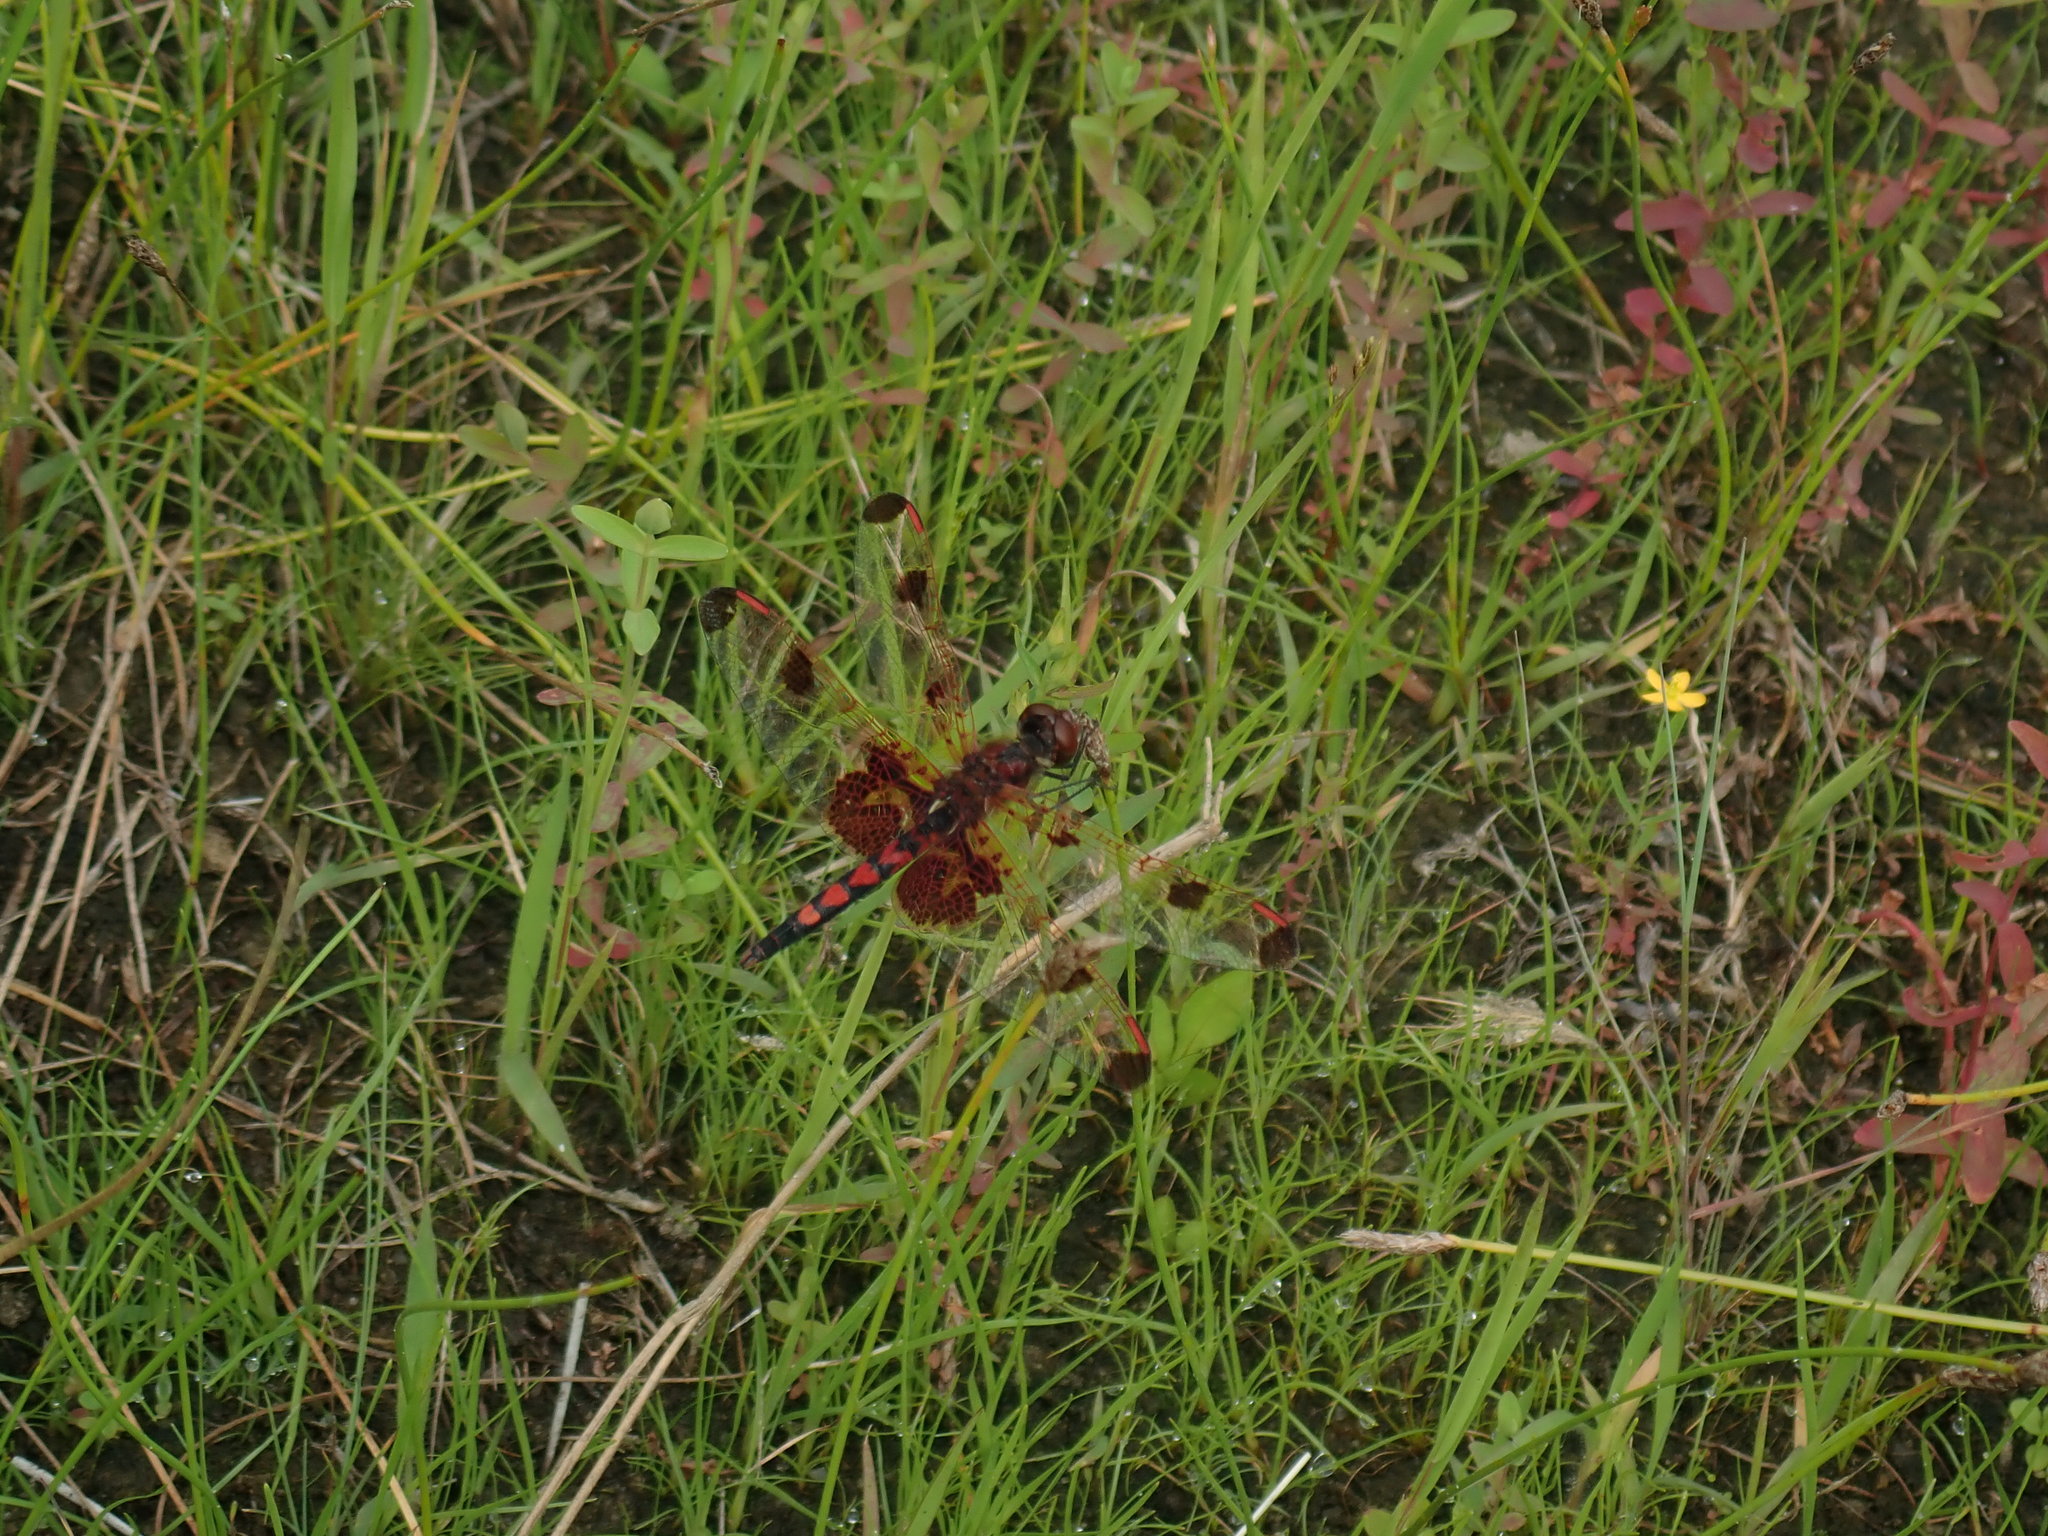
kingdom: Animalia
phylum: Arthropoda
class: Insecta
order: Odonata
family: Libellulidae
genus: Celithemis
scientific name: Celithemis elisa
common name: Calico pennant
